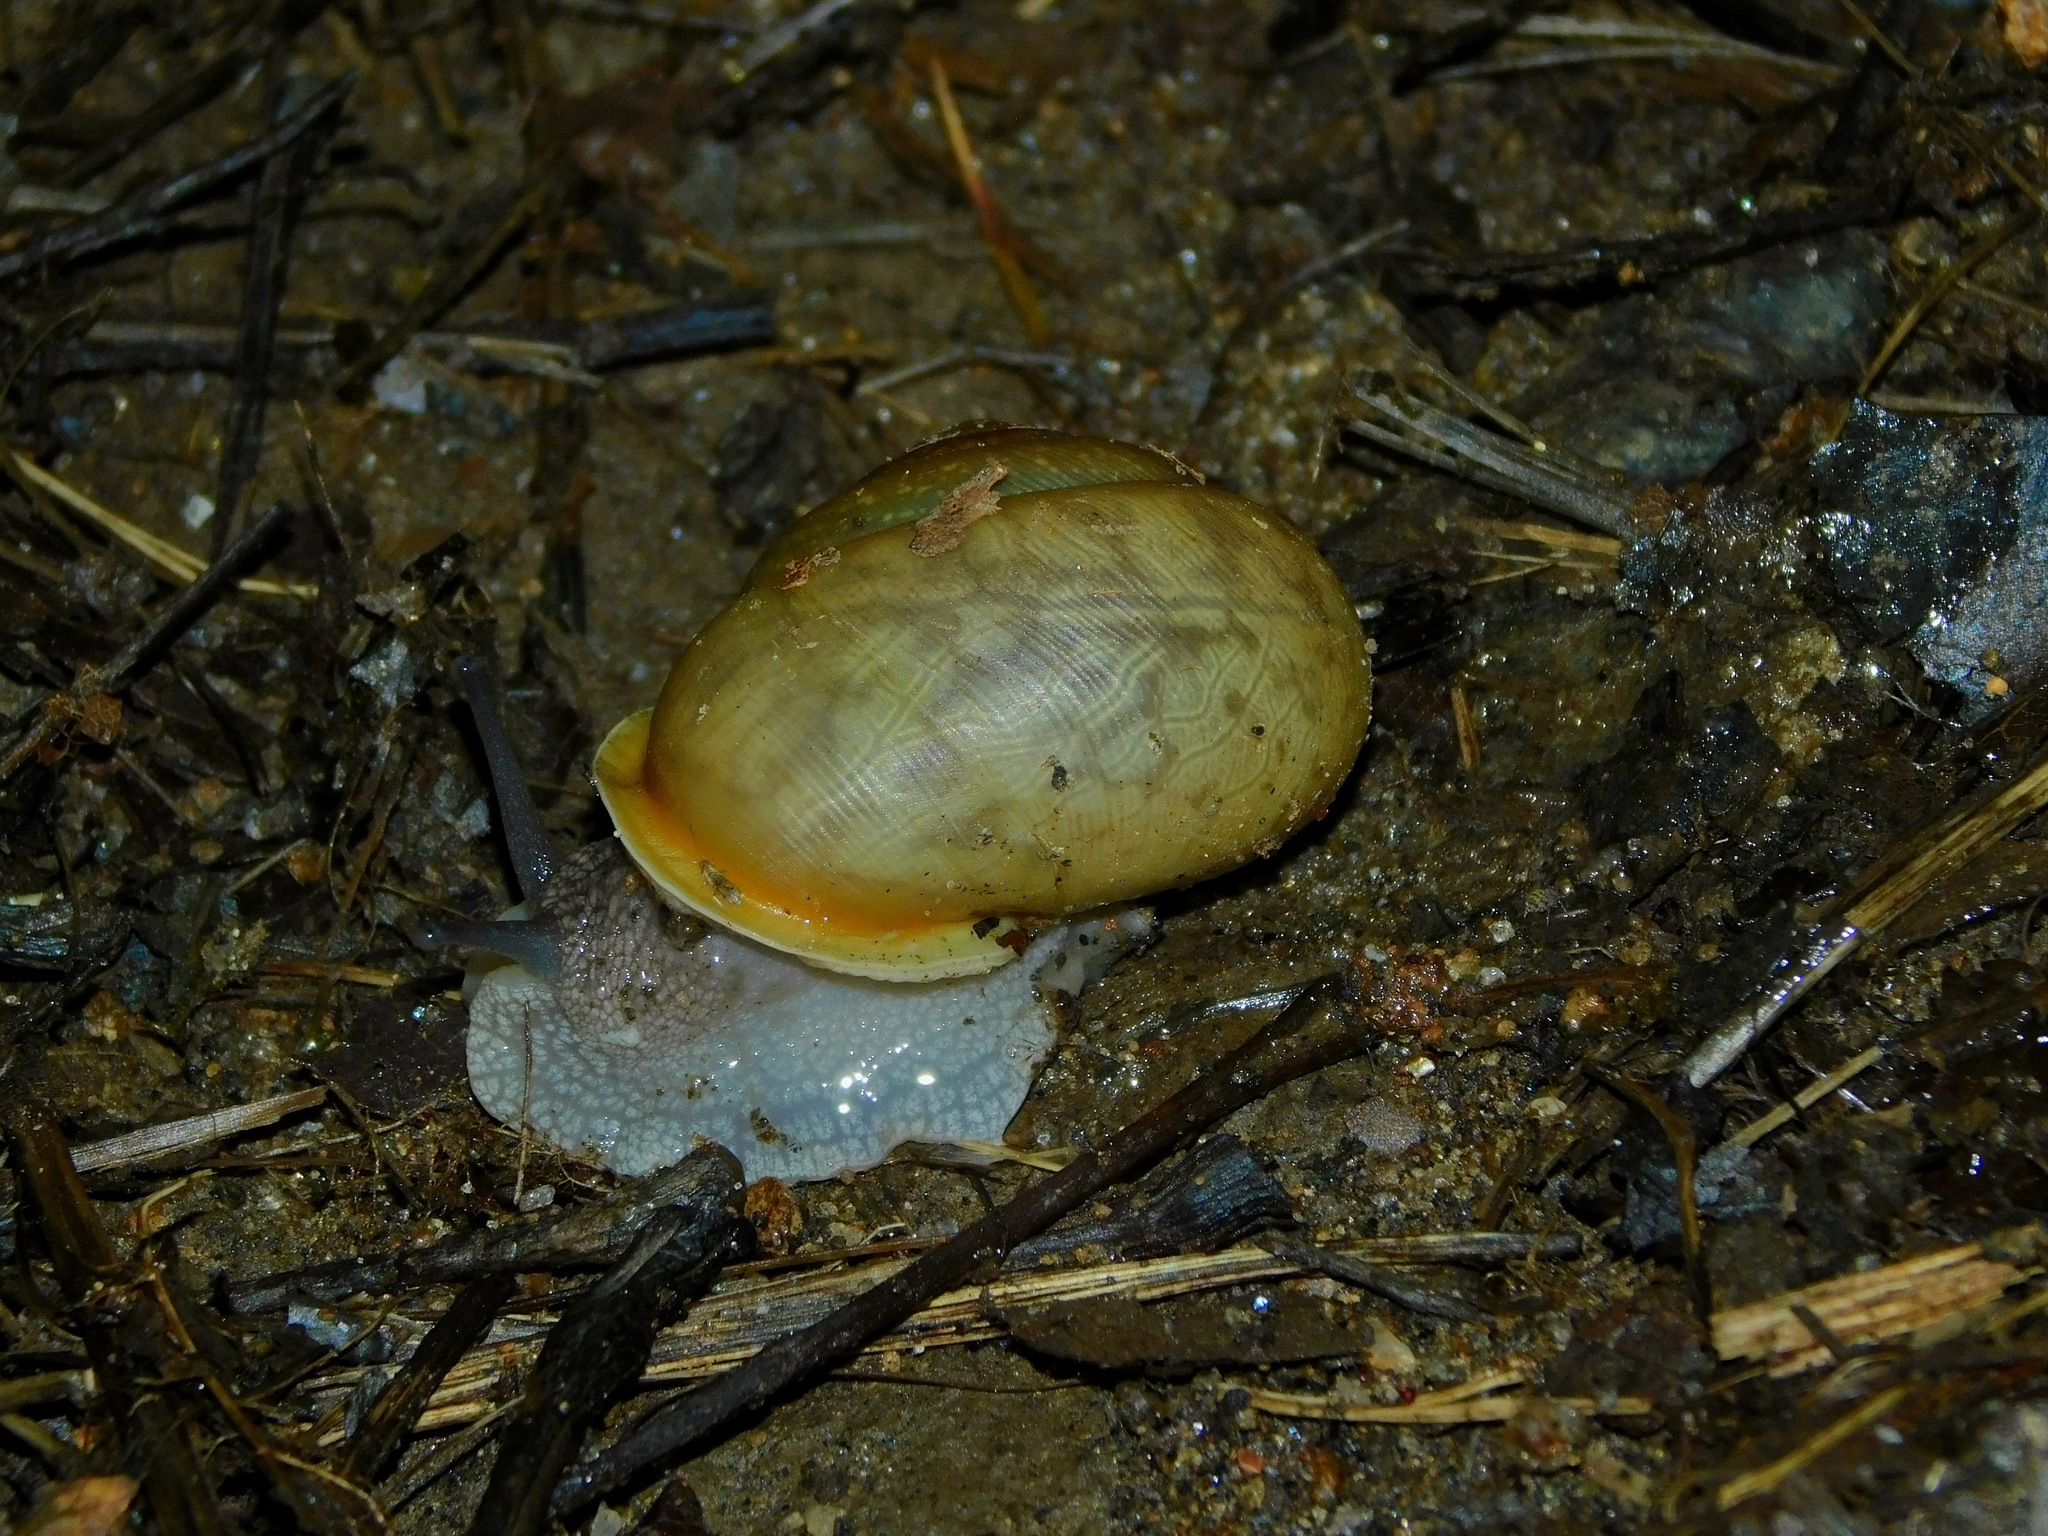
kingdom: Animalia
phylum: Mollusca
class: Gastropoda
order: Stylommatophora
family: Polygyridae
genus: Mesodon
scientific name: Mesodon normalis
